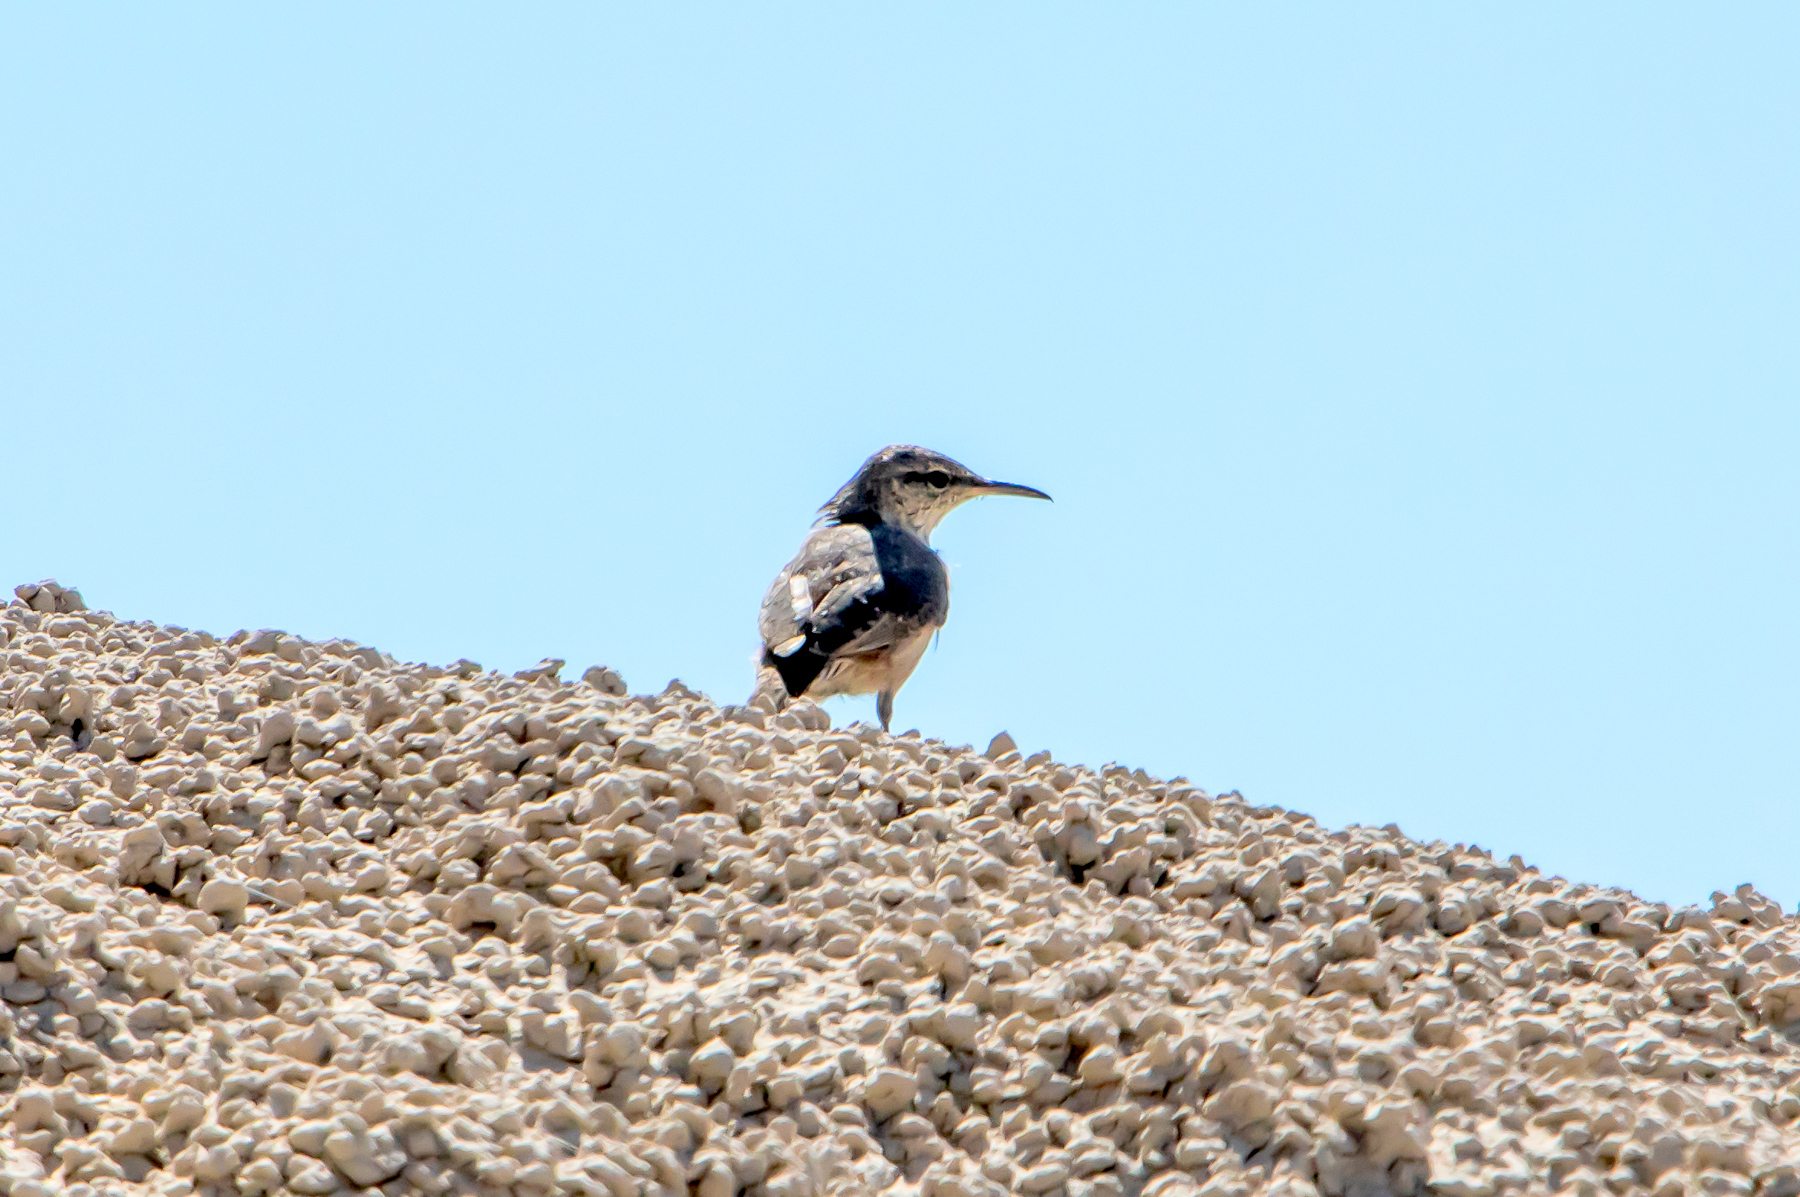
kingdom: Animalia
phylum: Chordata
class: Aves
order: Passeriformes
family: Troglodytidae
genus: Salpinctes
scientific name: Salpinctes obsoletus
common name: Rock wren
